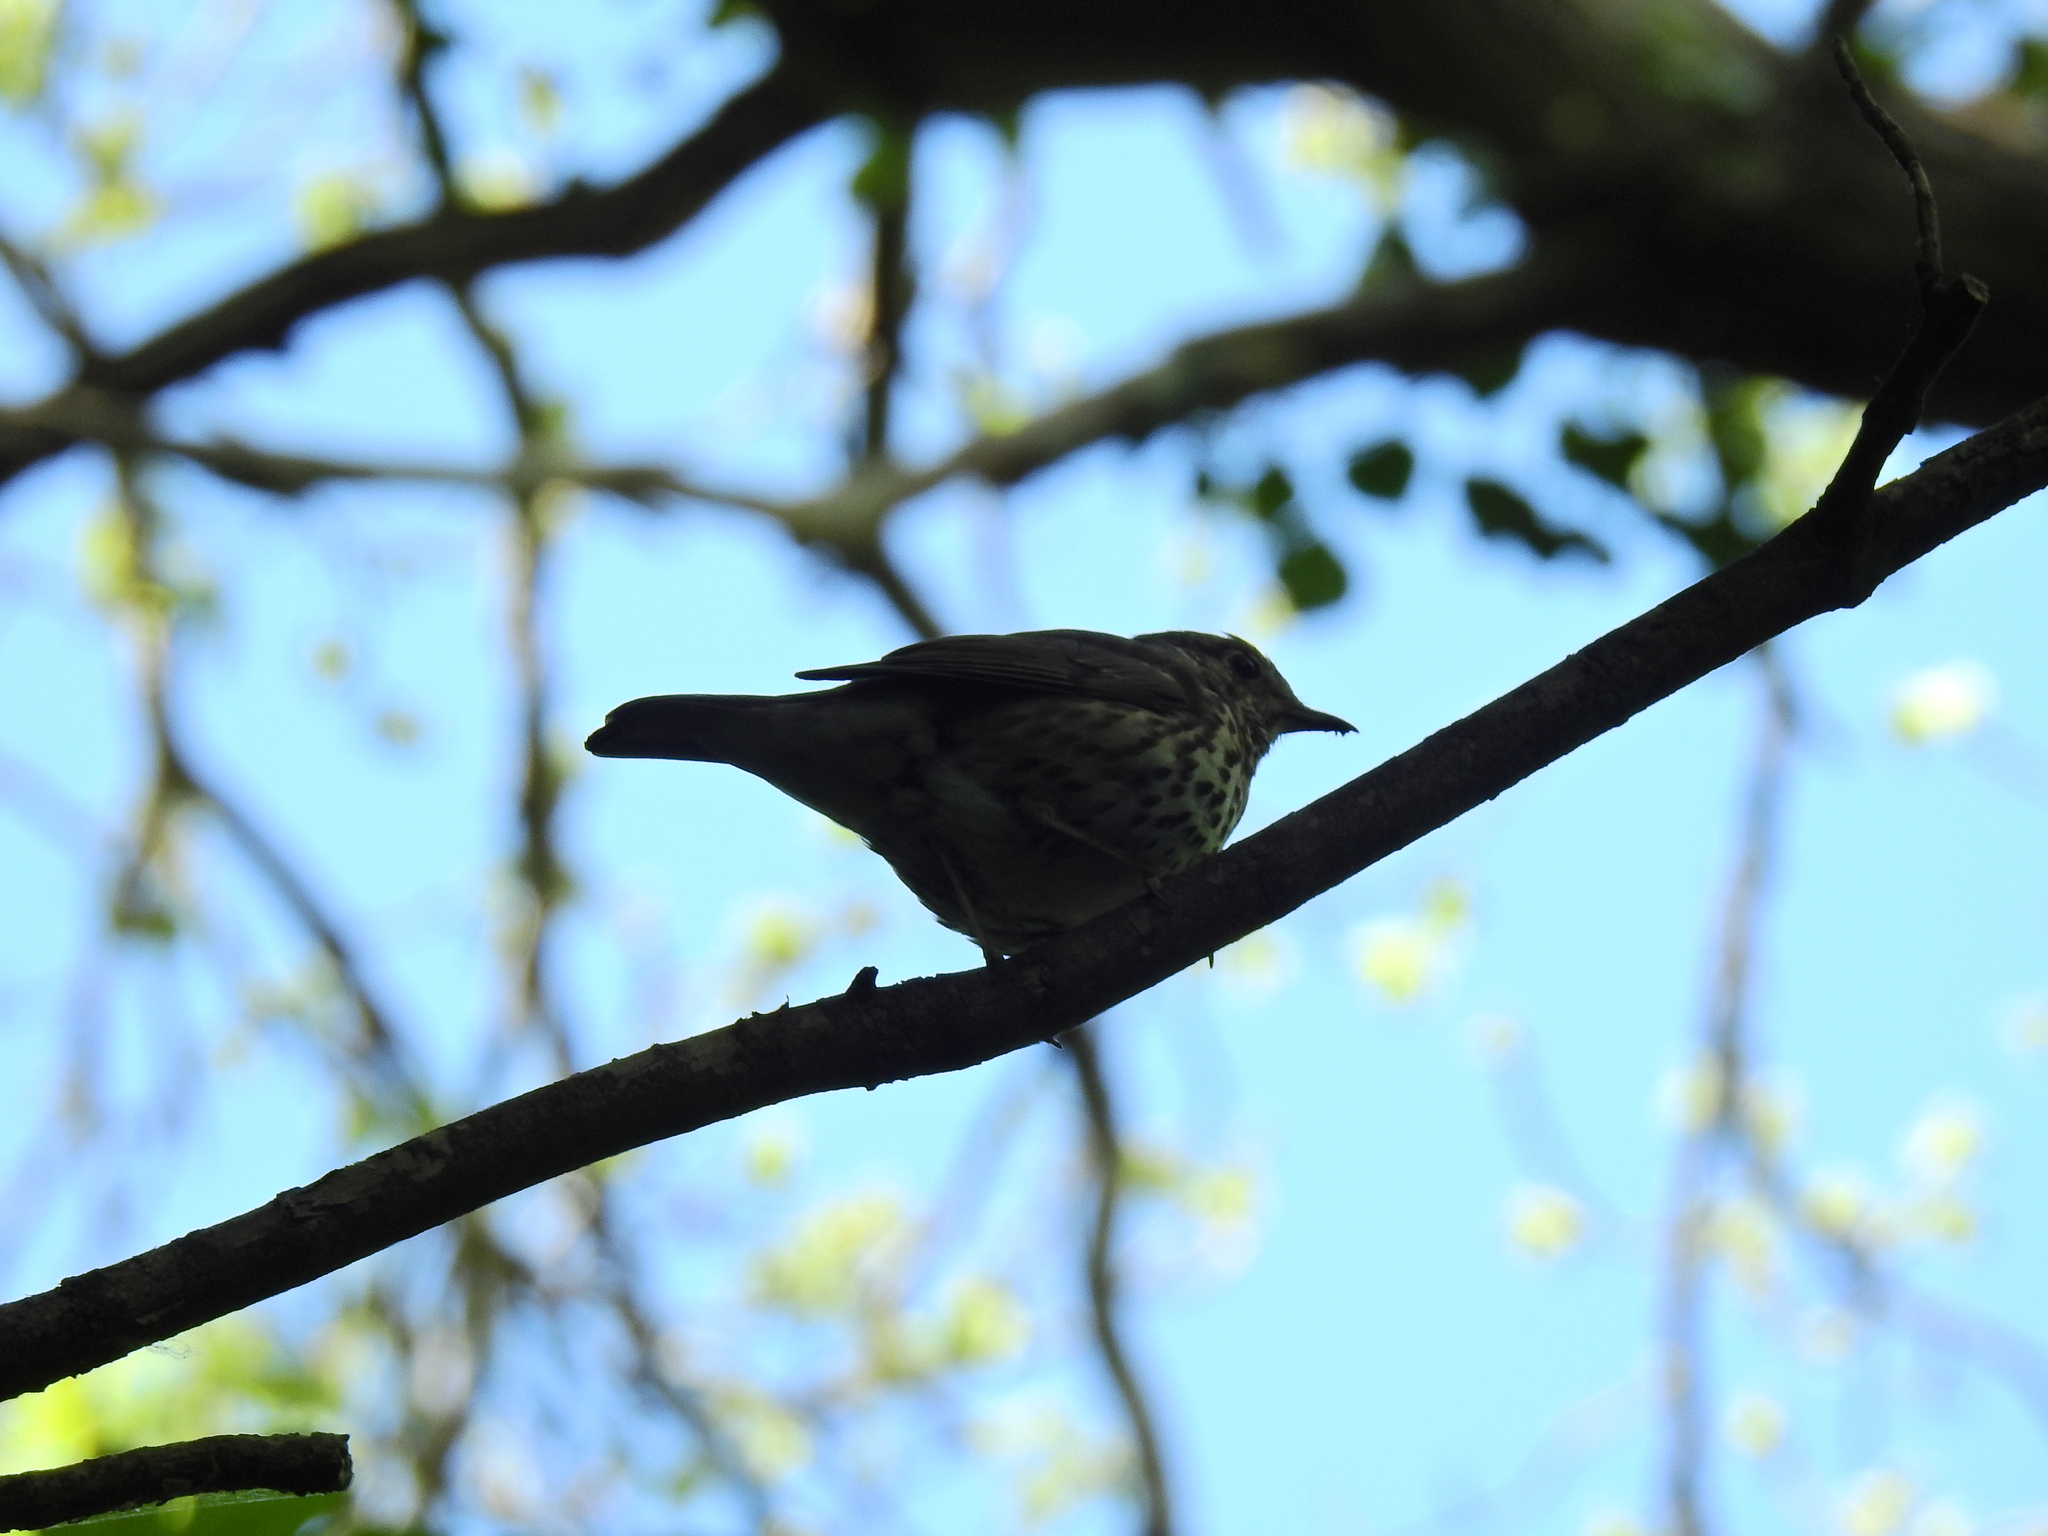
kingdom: Animalia
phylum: Chordata
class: Aves
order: Passeriformes
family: Turdidae
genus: Turdus
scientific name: Turdus philomelos
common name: Song thrush
